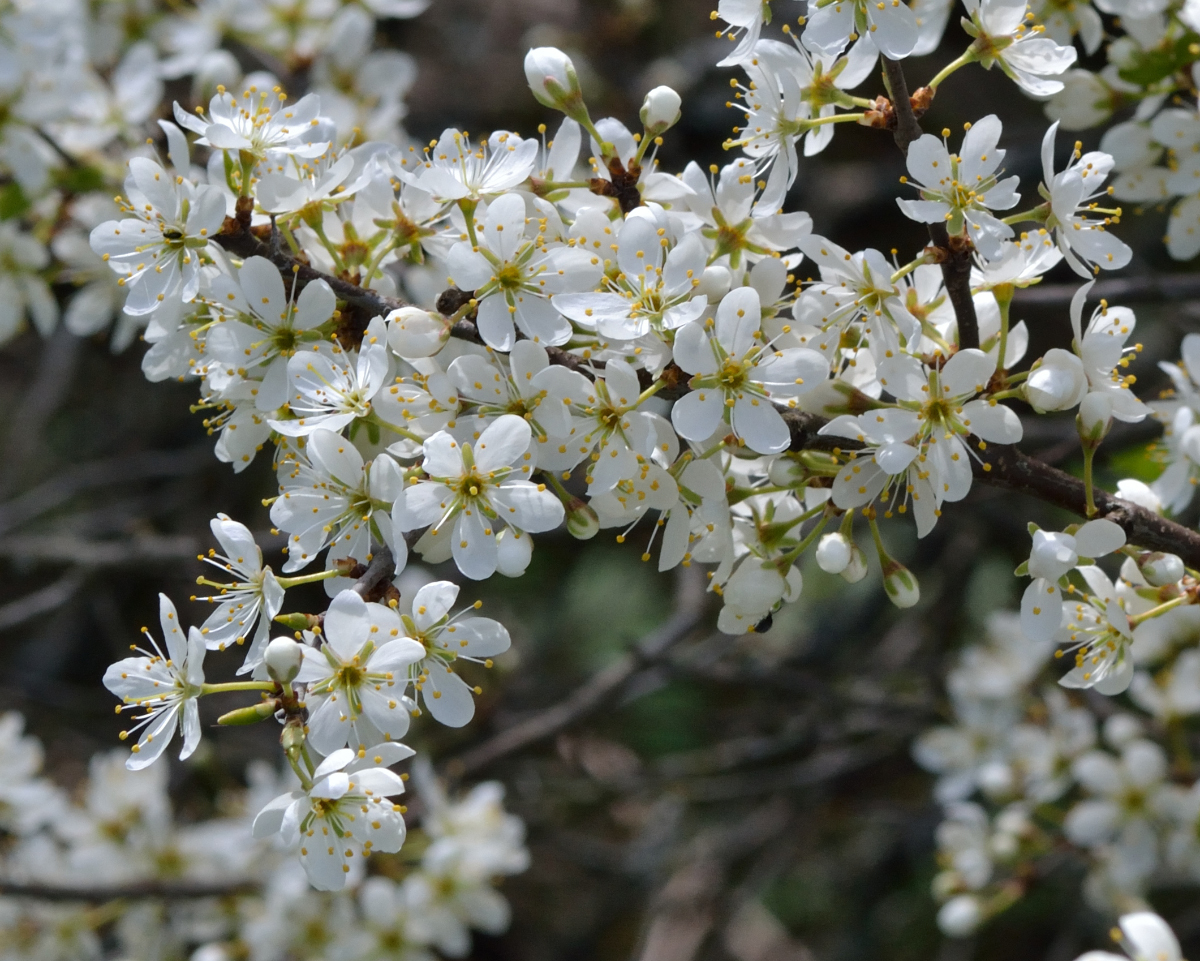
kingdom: Plantae
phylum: Tracheophyta
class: Magnoliopsida
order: Rosales
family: Rosaceae
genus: Prunus
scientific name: Prunus spinosa
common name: Blackthorn
